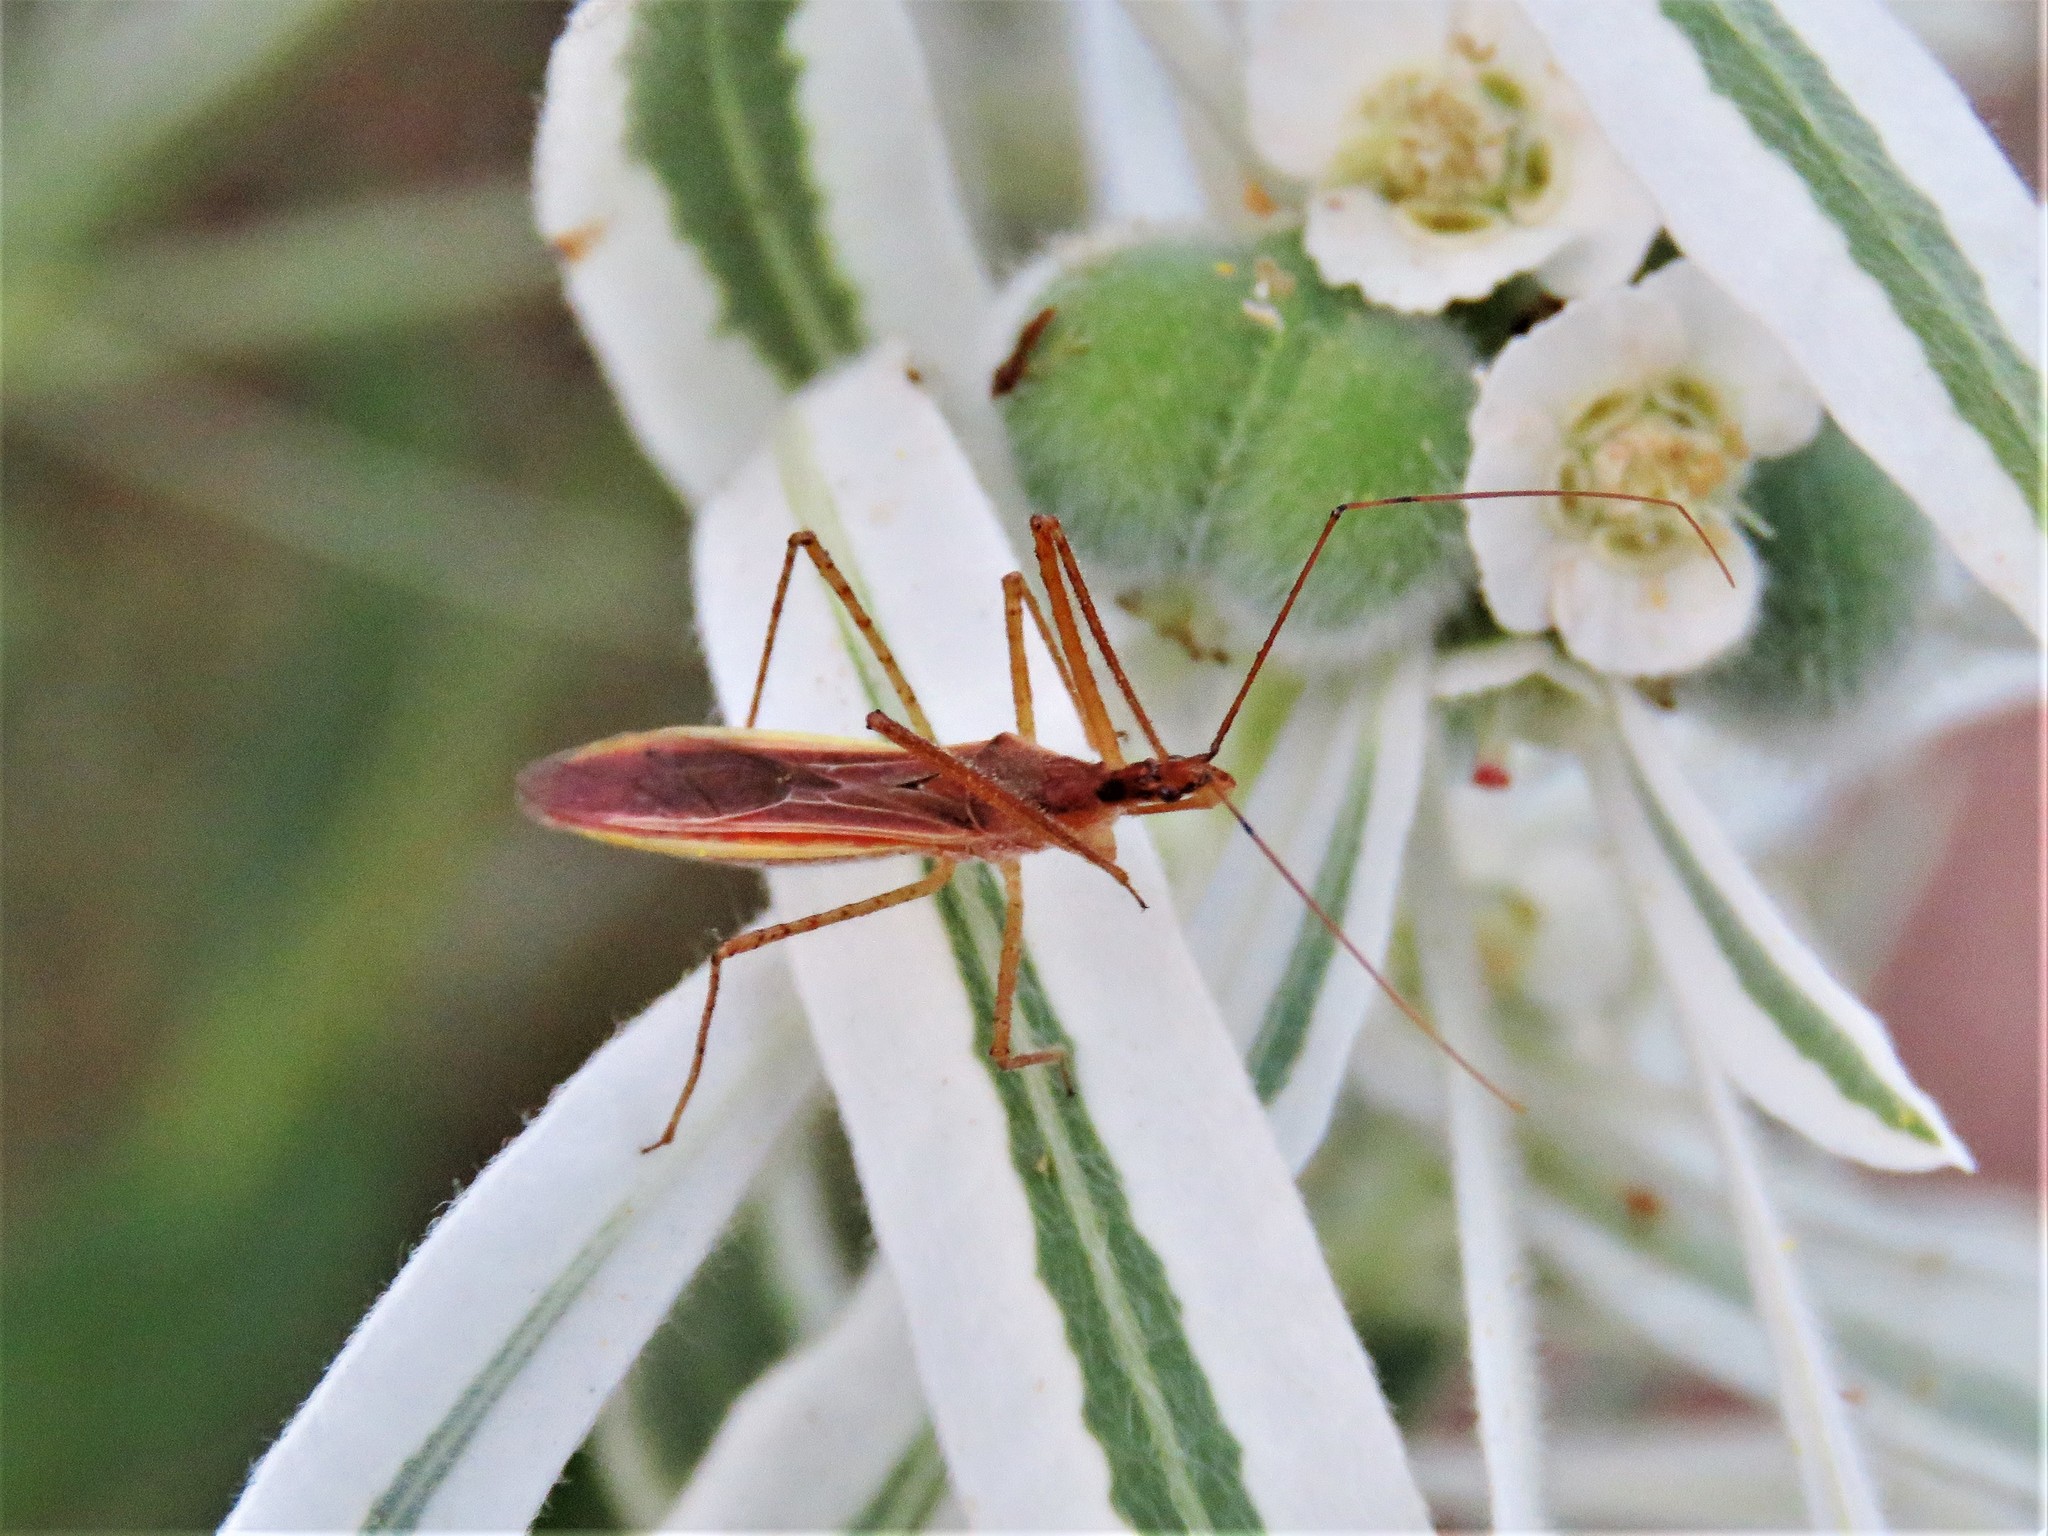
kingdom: Animalia
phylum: Arthropoda
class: Insecta
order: Hemiptera
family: Reduviidae
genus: Zelus
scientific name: Zelus cervicalis
